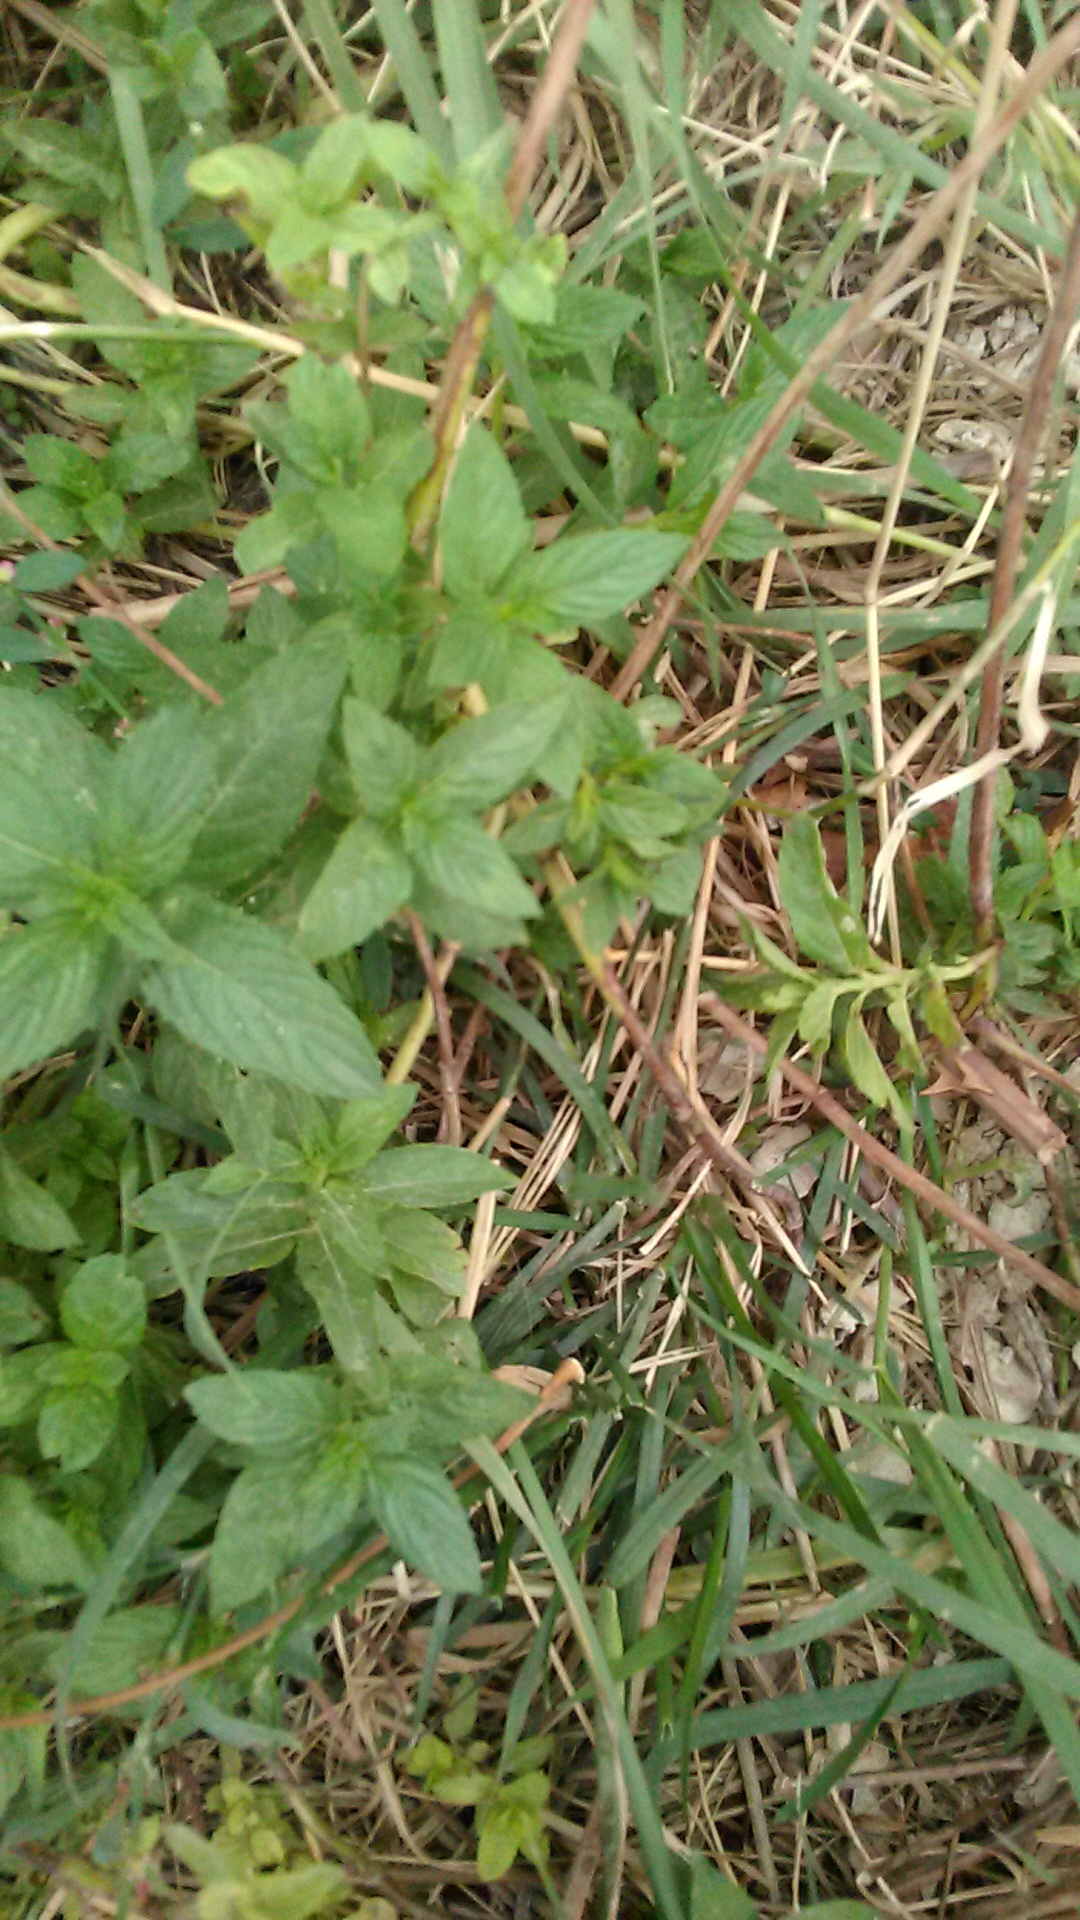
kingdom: Plantae
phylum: Tracheophyta
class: Magnoliopsida
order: Lamiales
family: Lamiaceae
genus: Mentha
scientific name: Mentha longifolia
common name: Horse mint
